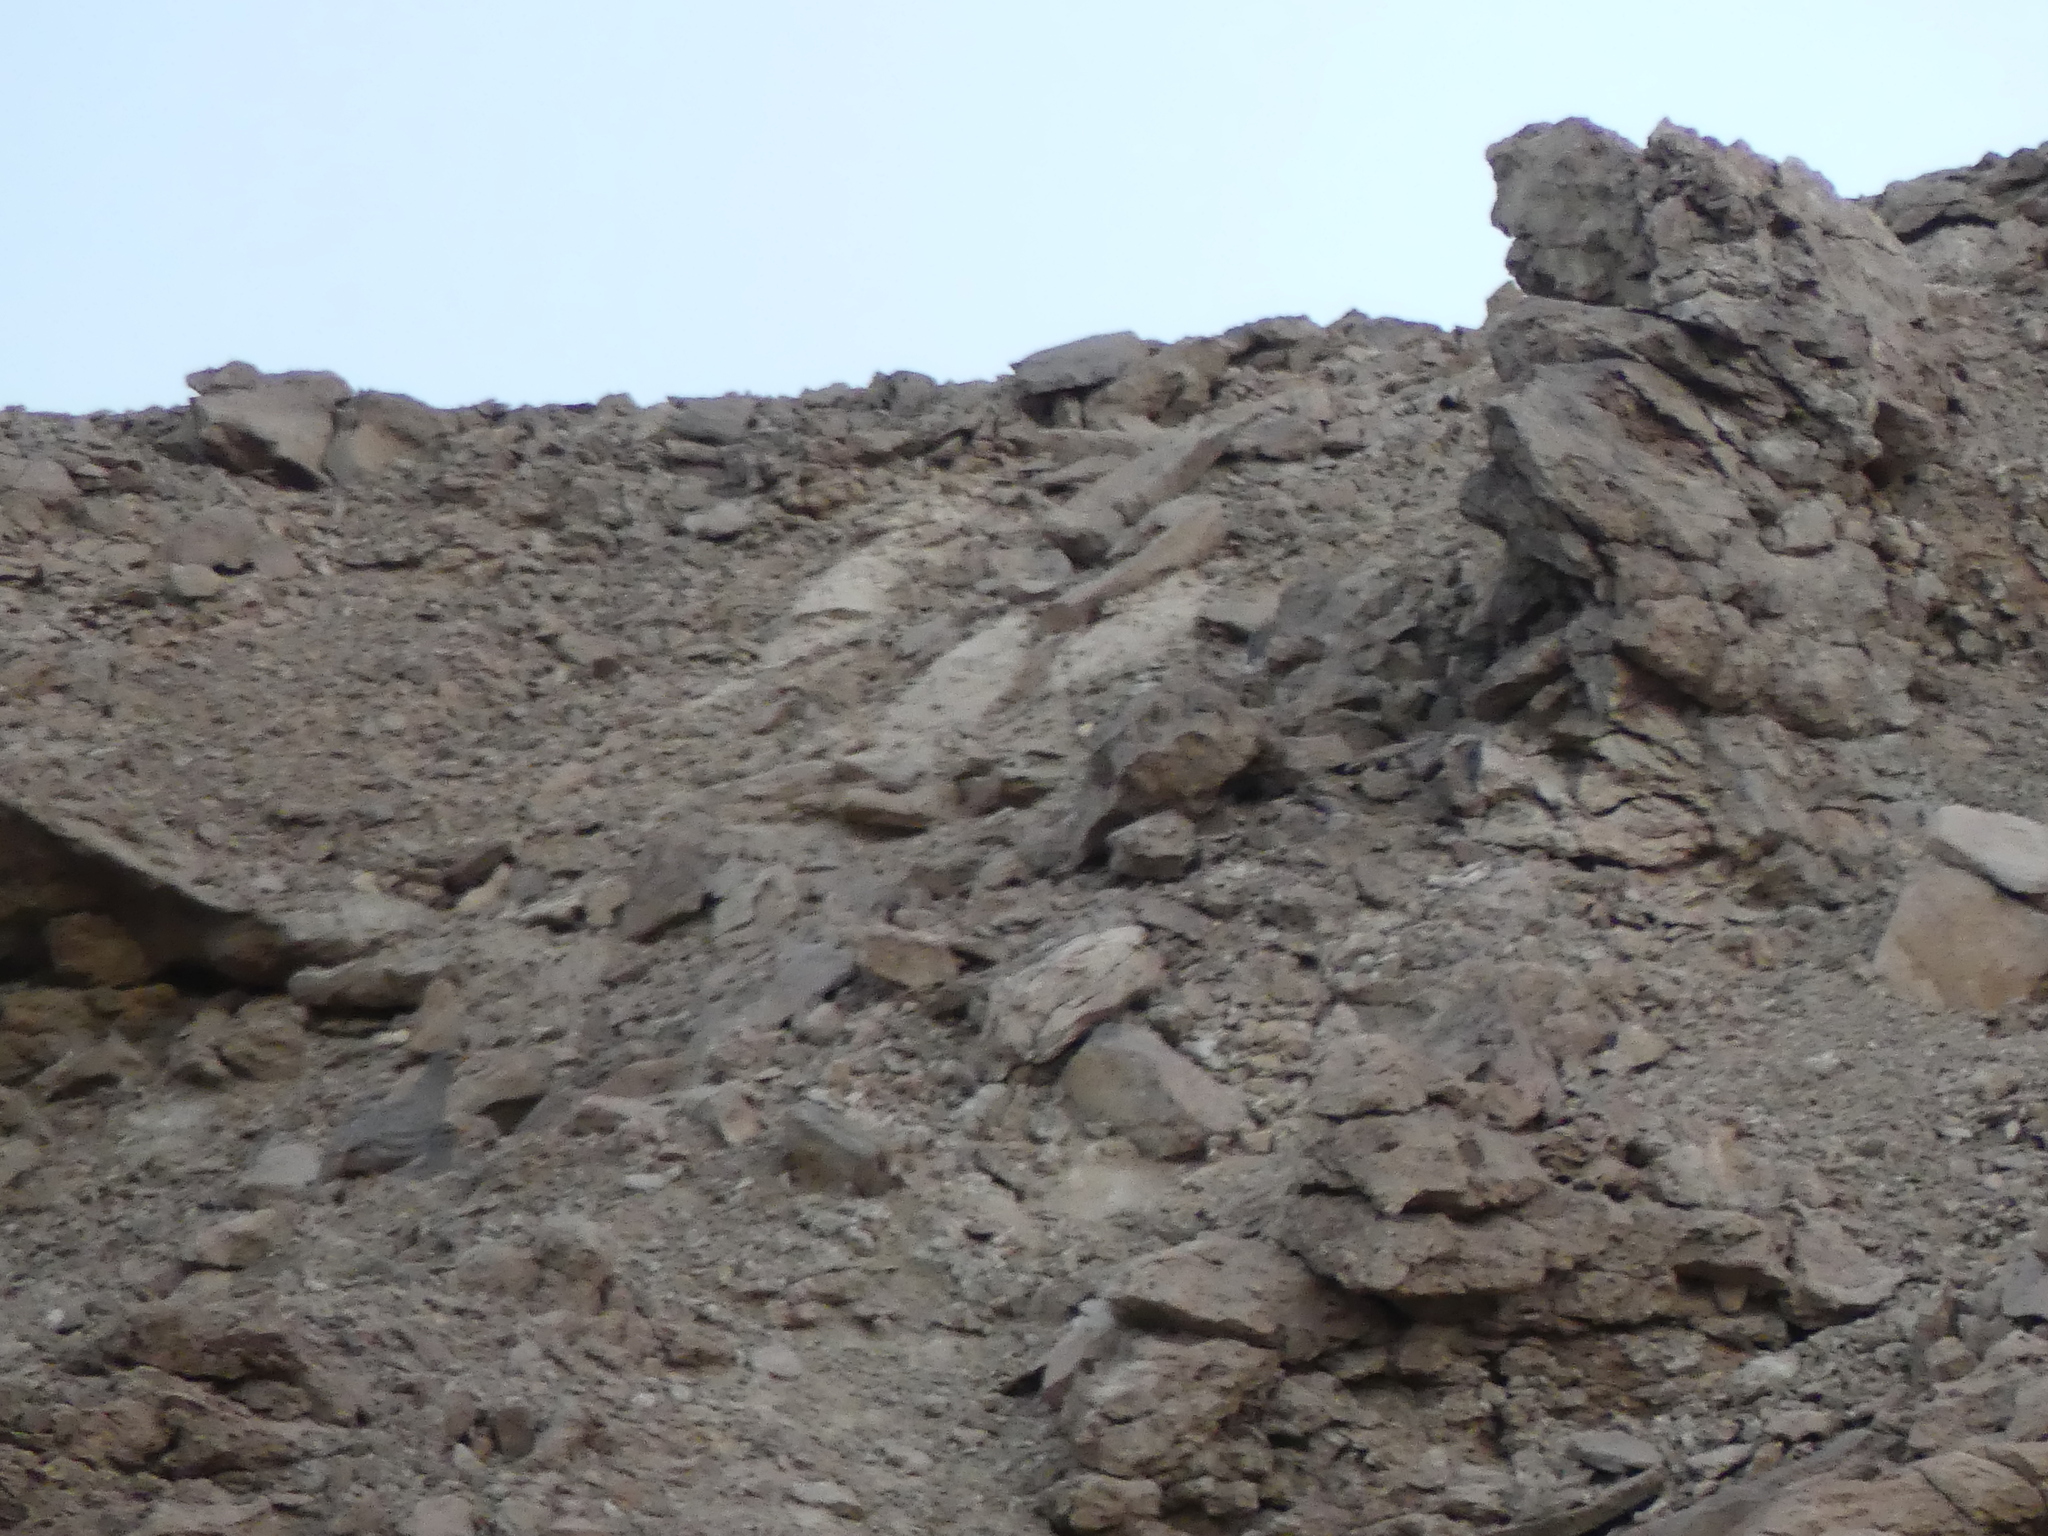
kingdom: Animalia
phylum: Chordata
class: Aves
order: Galliformes
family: Phasianidae
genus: Ammoperdix
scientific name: Ammoperdix heyi
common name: Sand partridge
